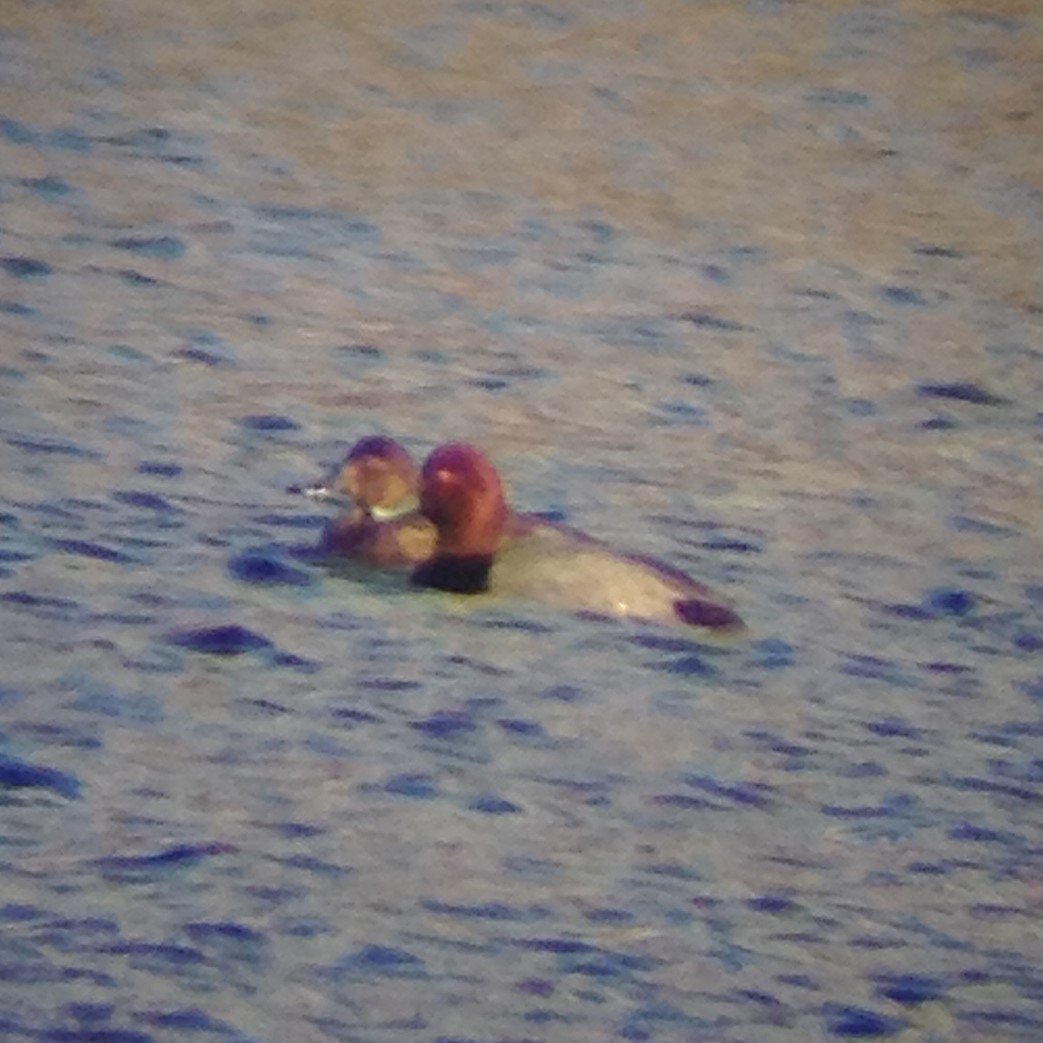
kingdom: Animalia
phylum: Chordata
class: Aves
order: Anseriformes
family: Anatidae
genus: Aythya
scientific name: Aythya americana
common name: Redhead
